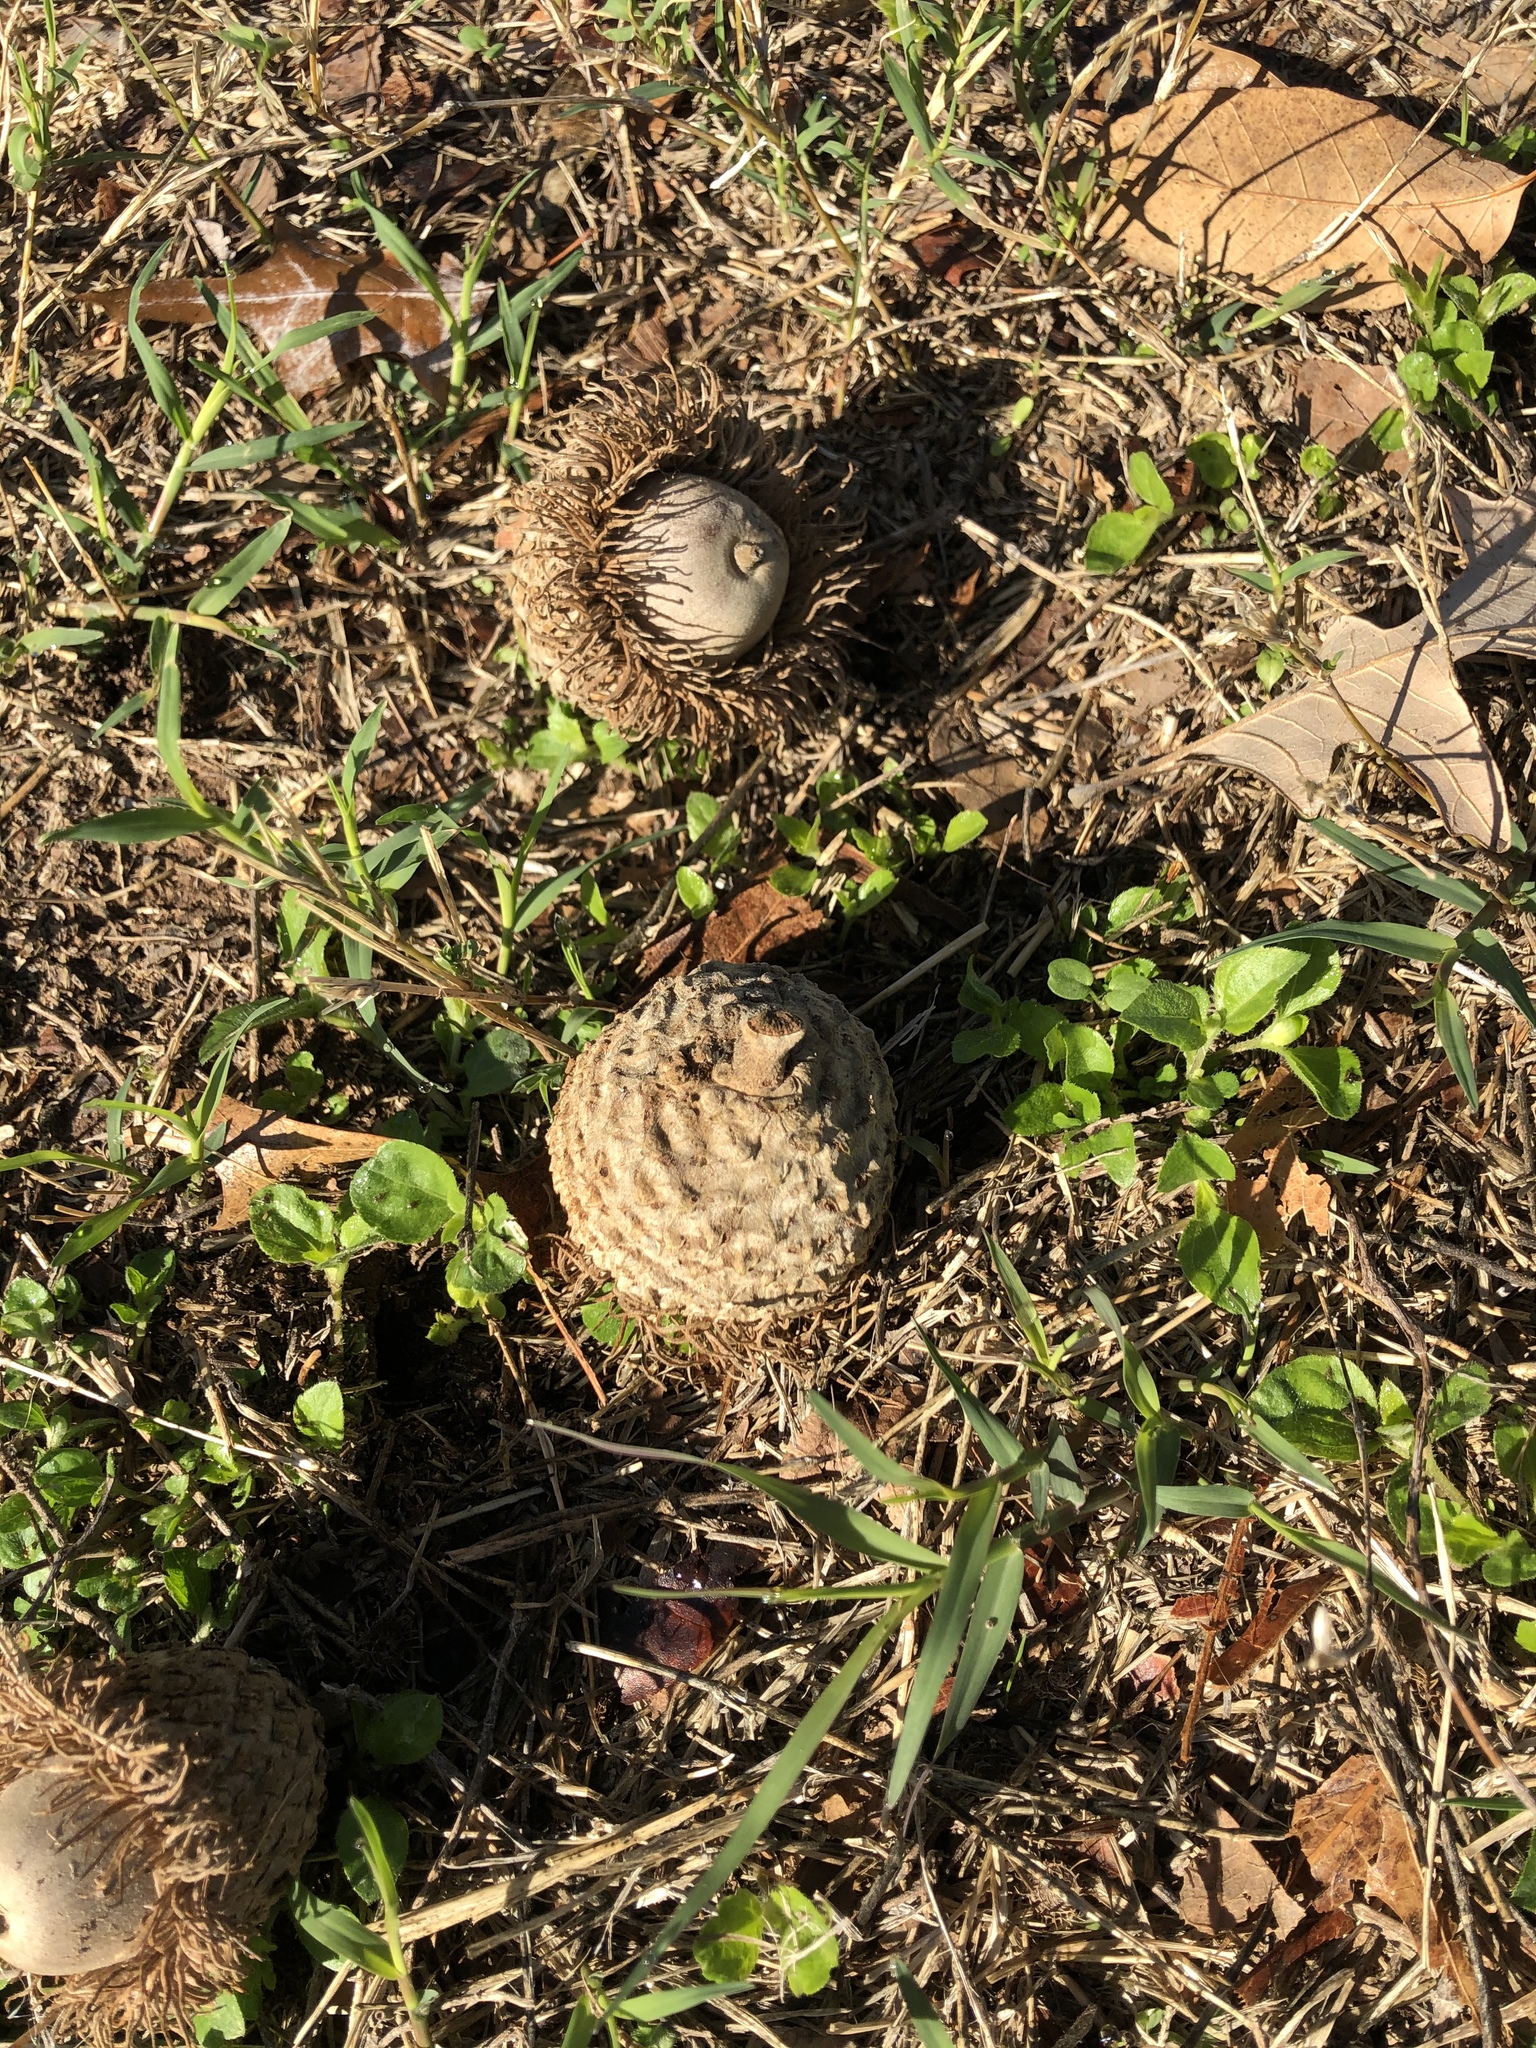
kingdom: Plantae
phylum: Tracheophyta
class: Magnoliopsida
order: Fagales
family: Fagaceae
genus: Quercus
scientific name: Quercus macrocarpa
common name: Bur oak
